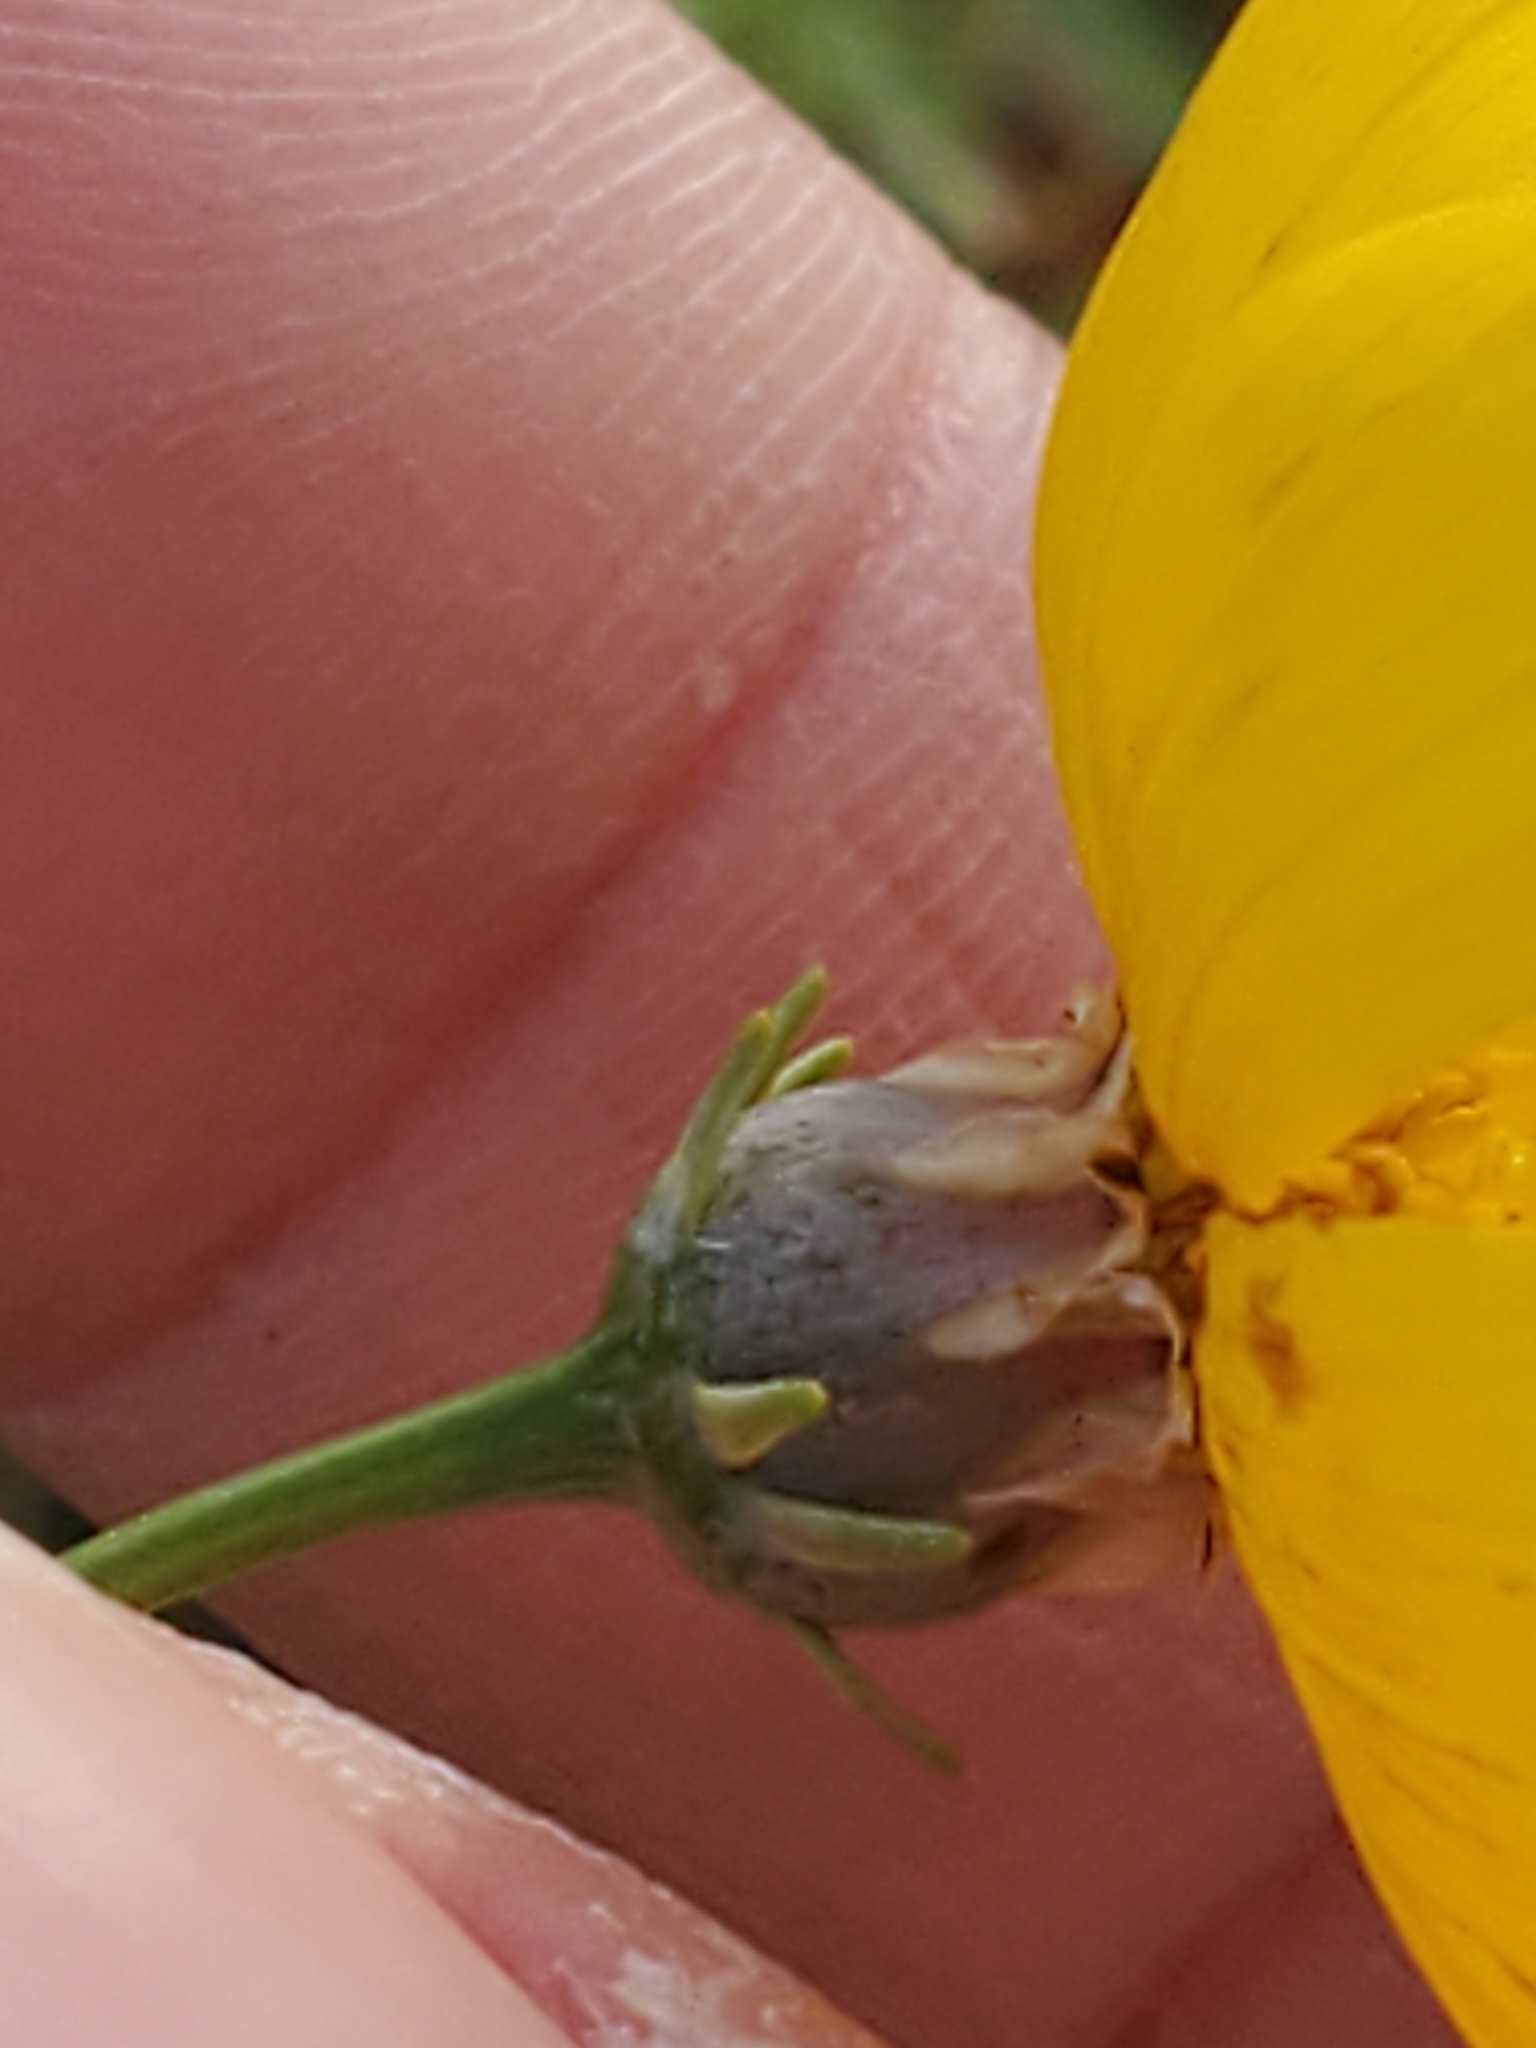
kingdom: Plantae
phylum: Tracheophyta
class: Magnoliopsida
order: Asterales
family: Asteraceae
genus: Thelesperma
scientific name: Thelesperma simplicifolium
